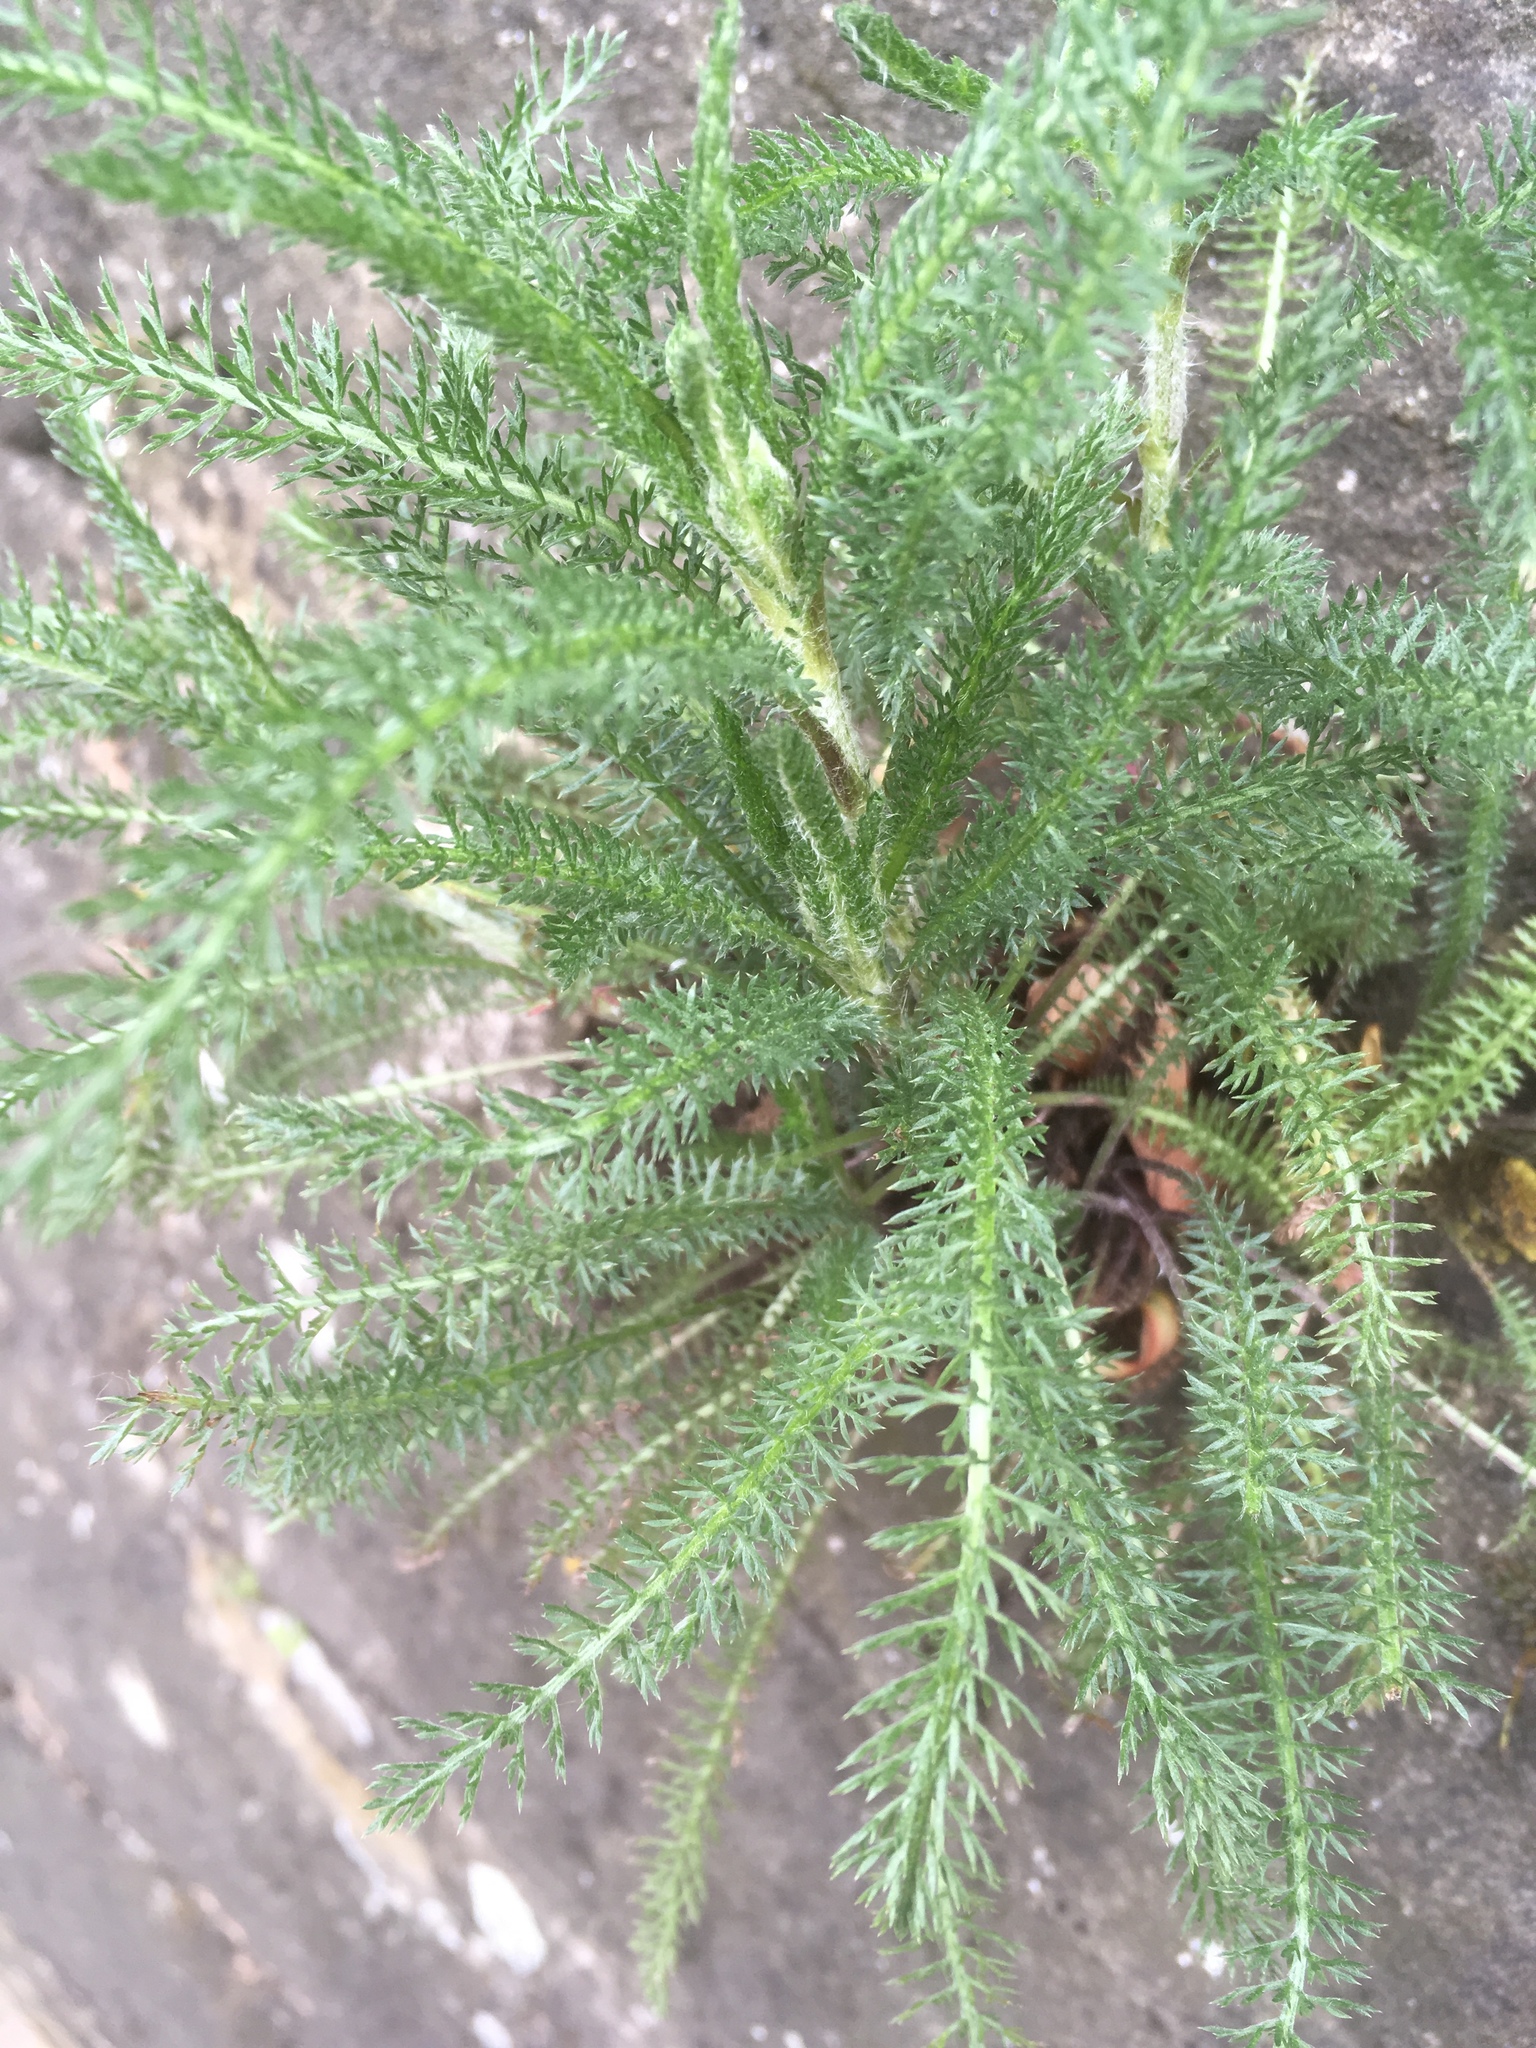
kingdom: Plantae
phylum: Tracheophyta
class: Magnoliopsida
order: Asterales
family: Asteraceae
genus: Achillea
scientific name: Achillea millefolium
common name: Yarrow
